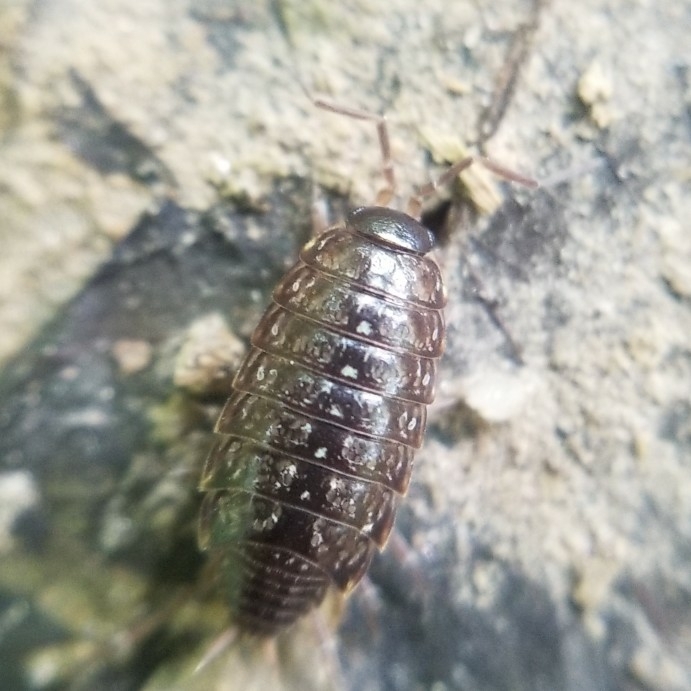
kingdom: Animalia
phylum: Arthropoda
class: Malacostraca
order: Isopoda
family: Philosciidae
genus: Philoscia
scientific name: Philoscia muscorum
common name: Common striped woodlouse
